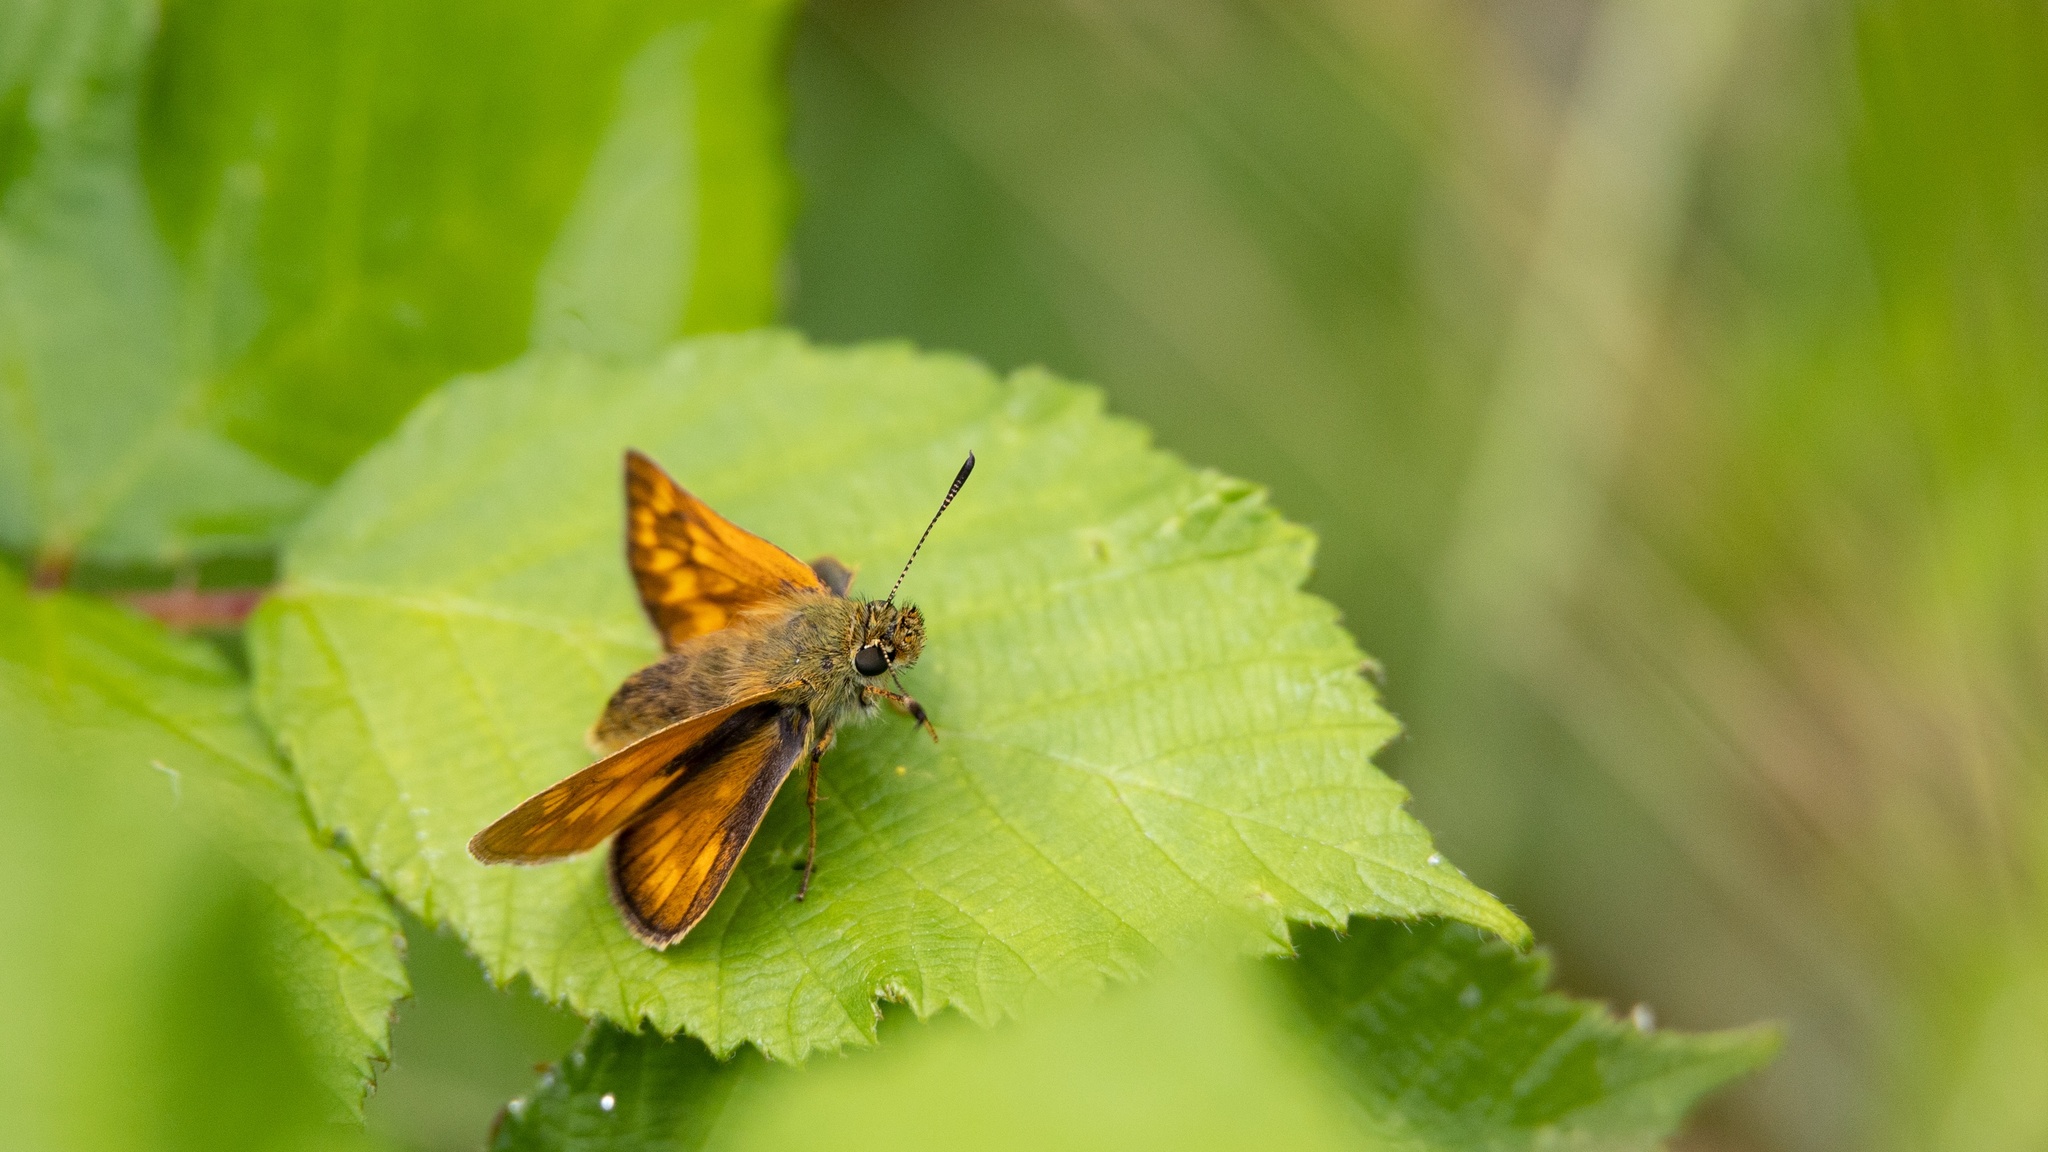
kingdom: Animalia
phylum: Arthropoda
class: Insecta
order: Lepidoptera
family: Hesperiidae
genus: Ochlodes
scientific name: Ochlodes venata
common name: Large skipper
